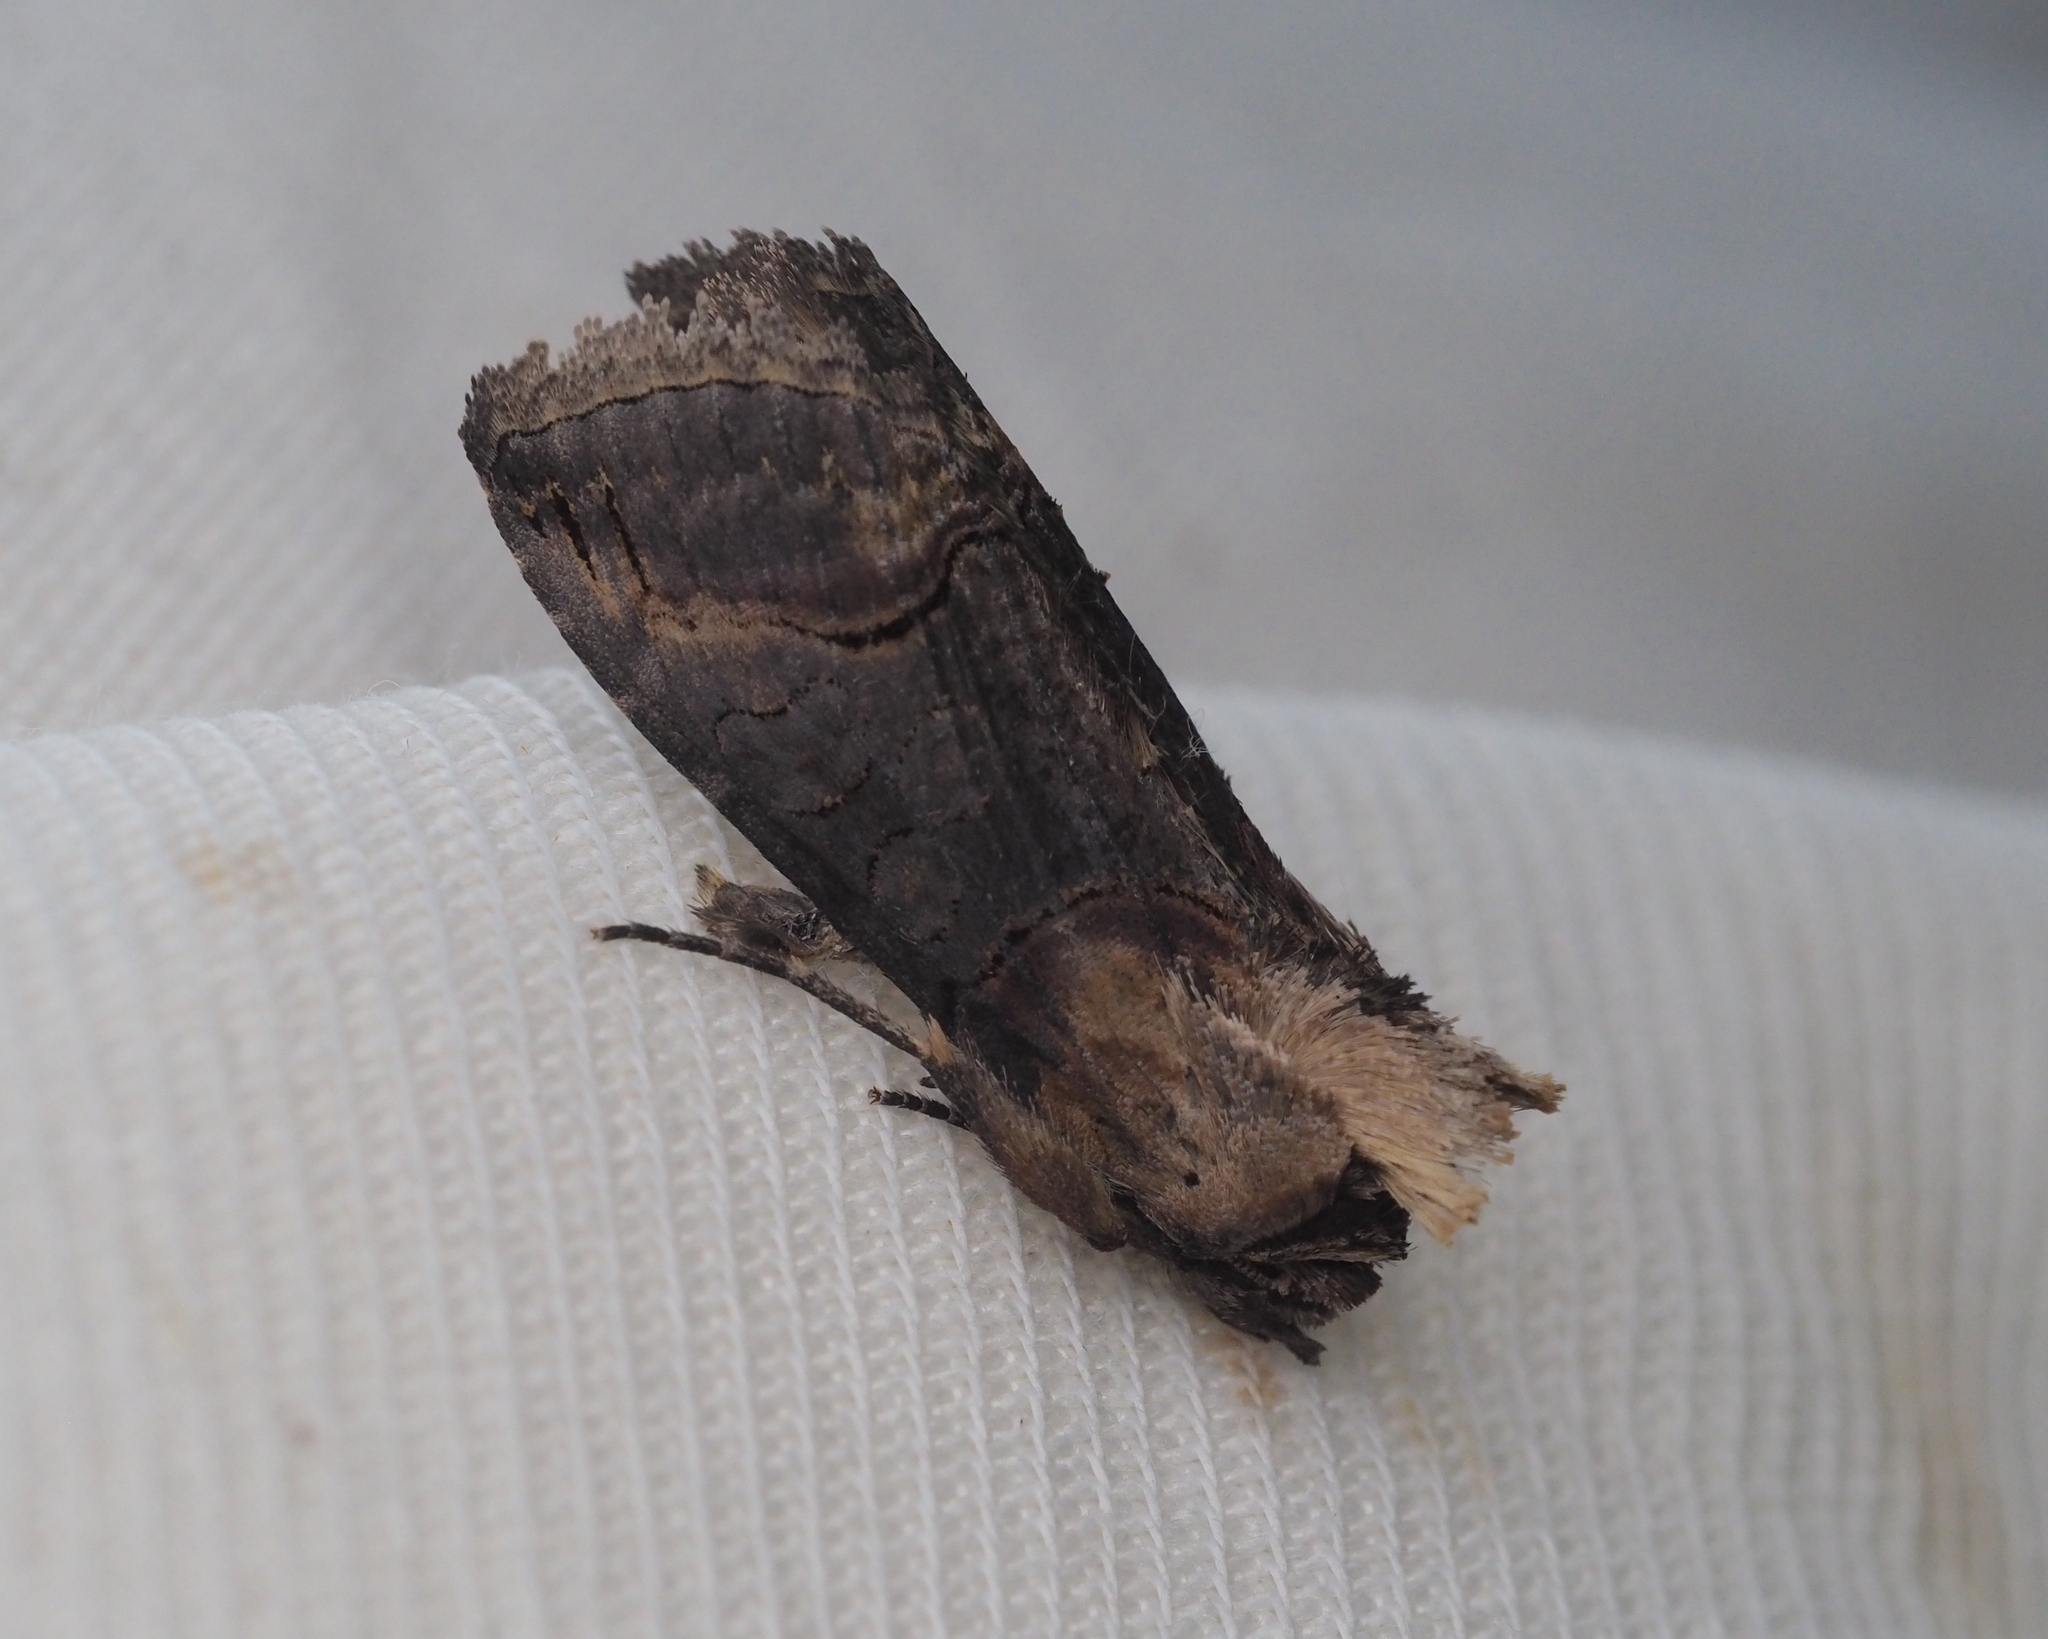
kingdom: Animalia
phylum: Arthropoda
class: Insecta
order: Lepidoptera
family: Noctuidae
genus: Abrostola
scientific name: Abrostola triplasia
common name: Dark spectacle
